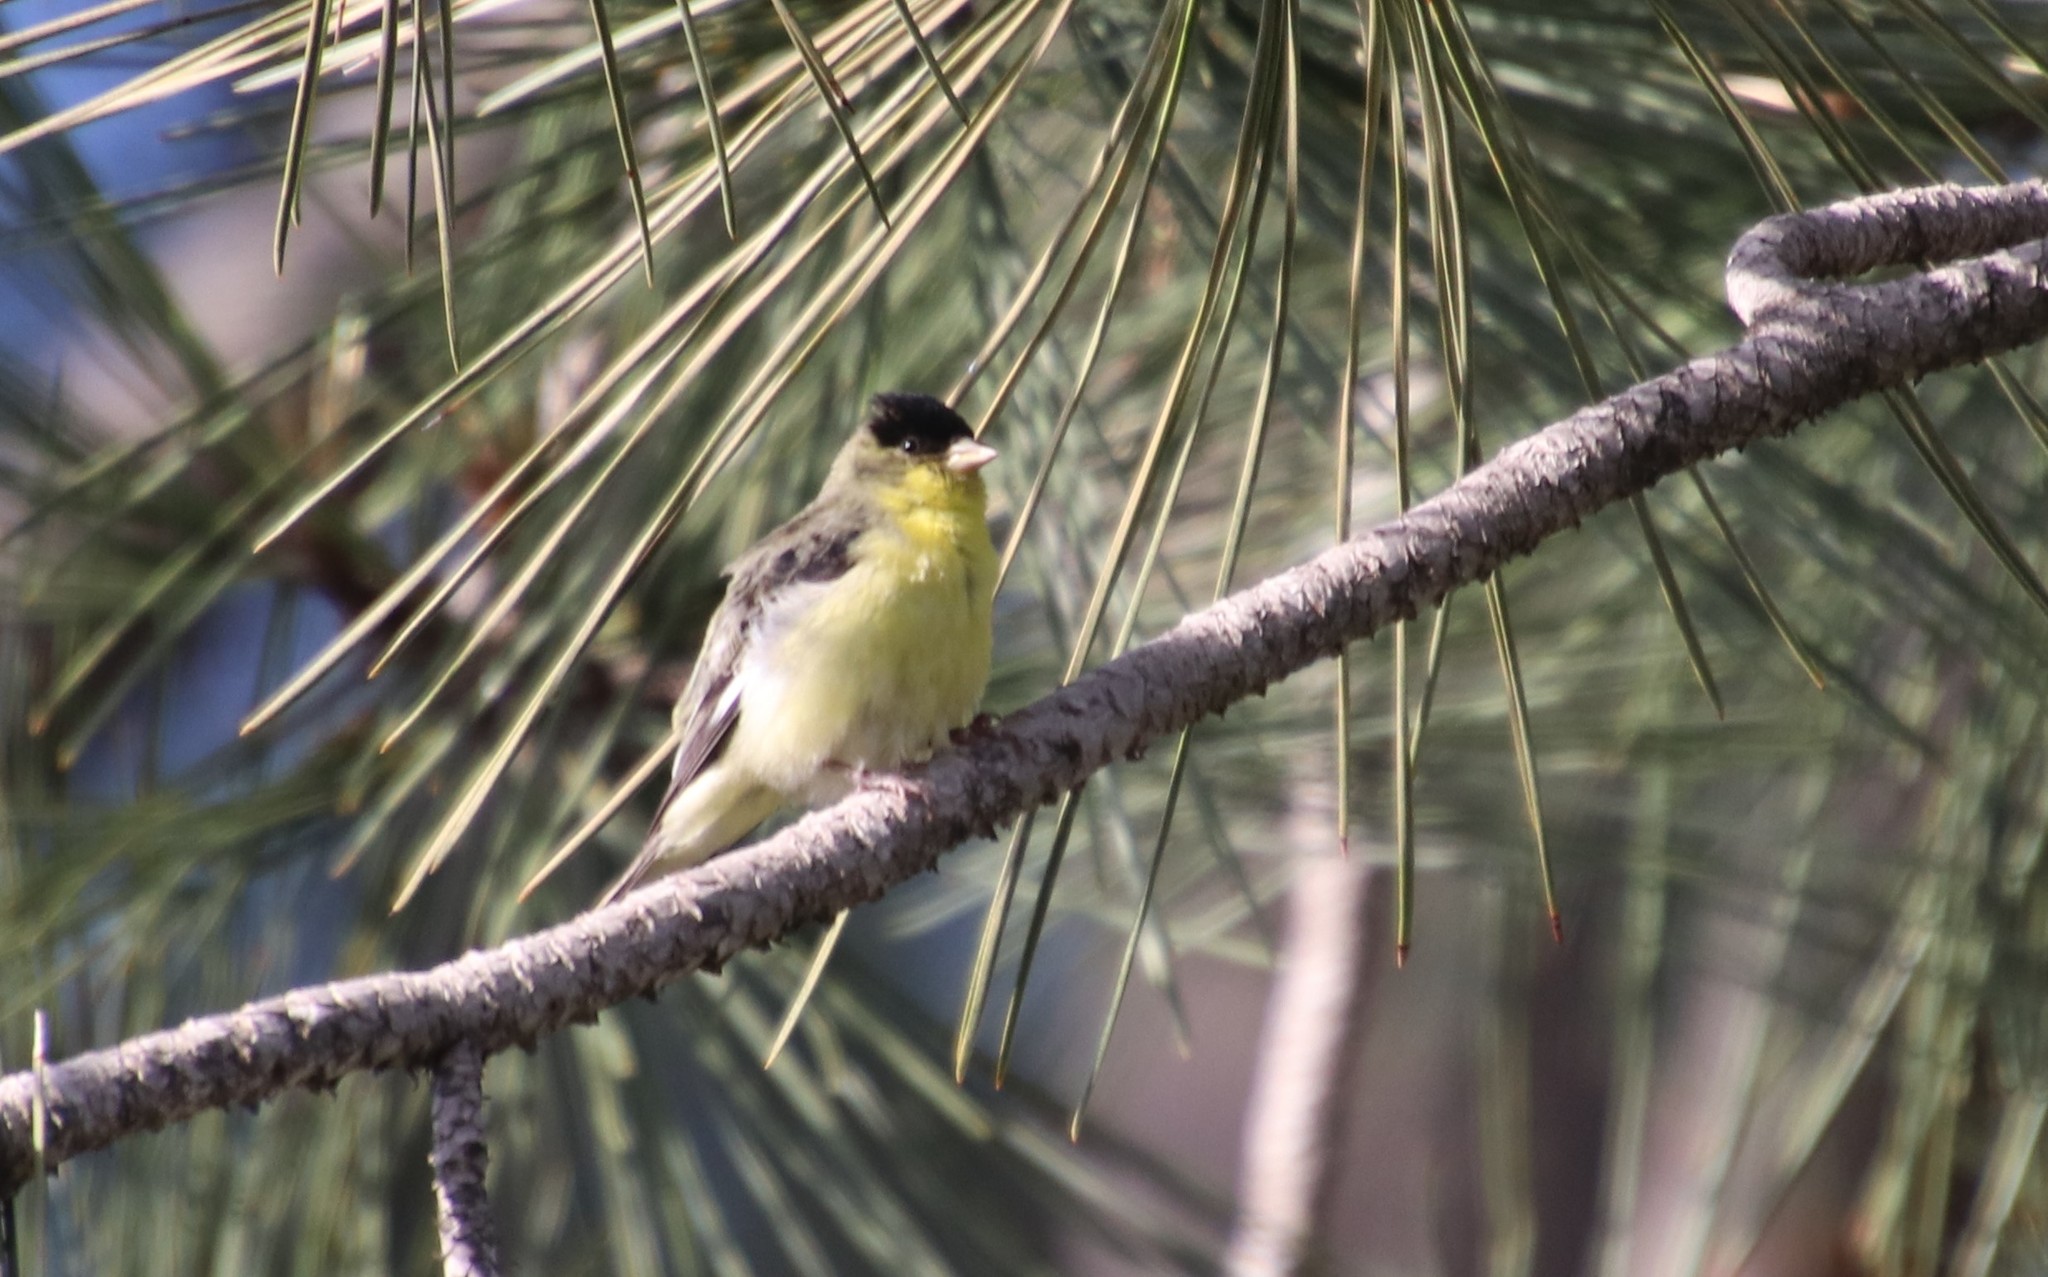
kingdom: Animalia
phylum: Chordata
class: Aves
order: Passeriformes
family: Fringillidae
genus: Spinus
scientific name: Spinus psaltria
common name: Lesser goldfinch
